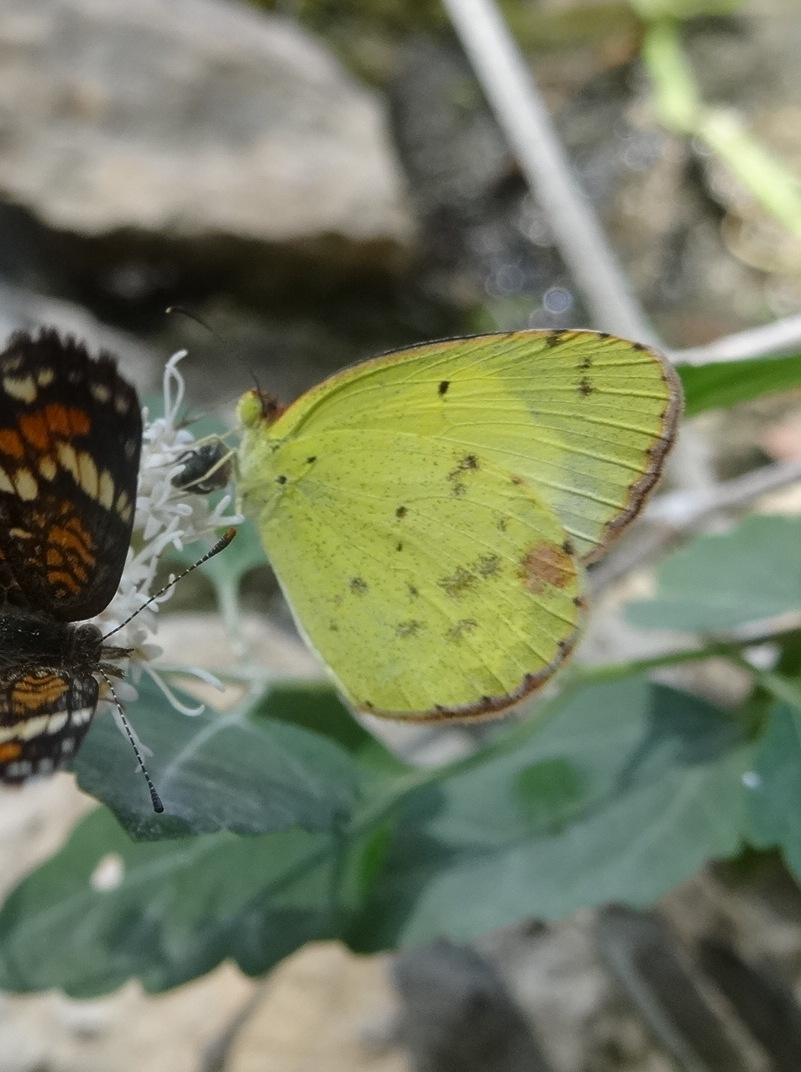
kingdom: Animalia
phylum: Arthropoda
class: Insecta
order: Lepidoptera
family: Pieridae
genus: Pyrisitia
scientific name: Pyrisitia lisa
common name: Little yellow
